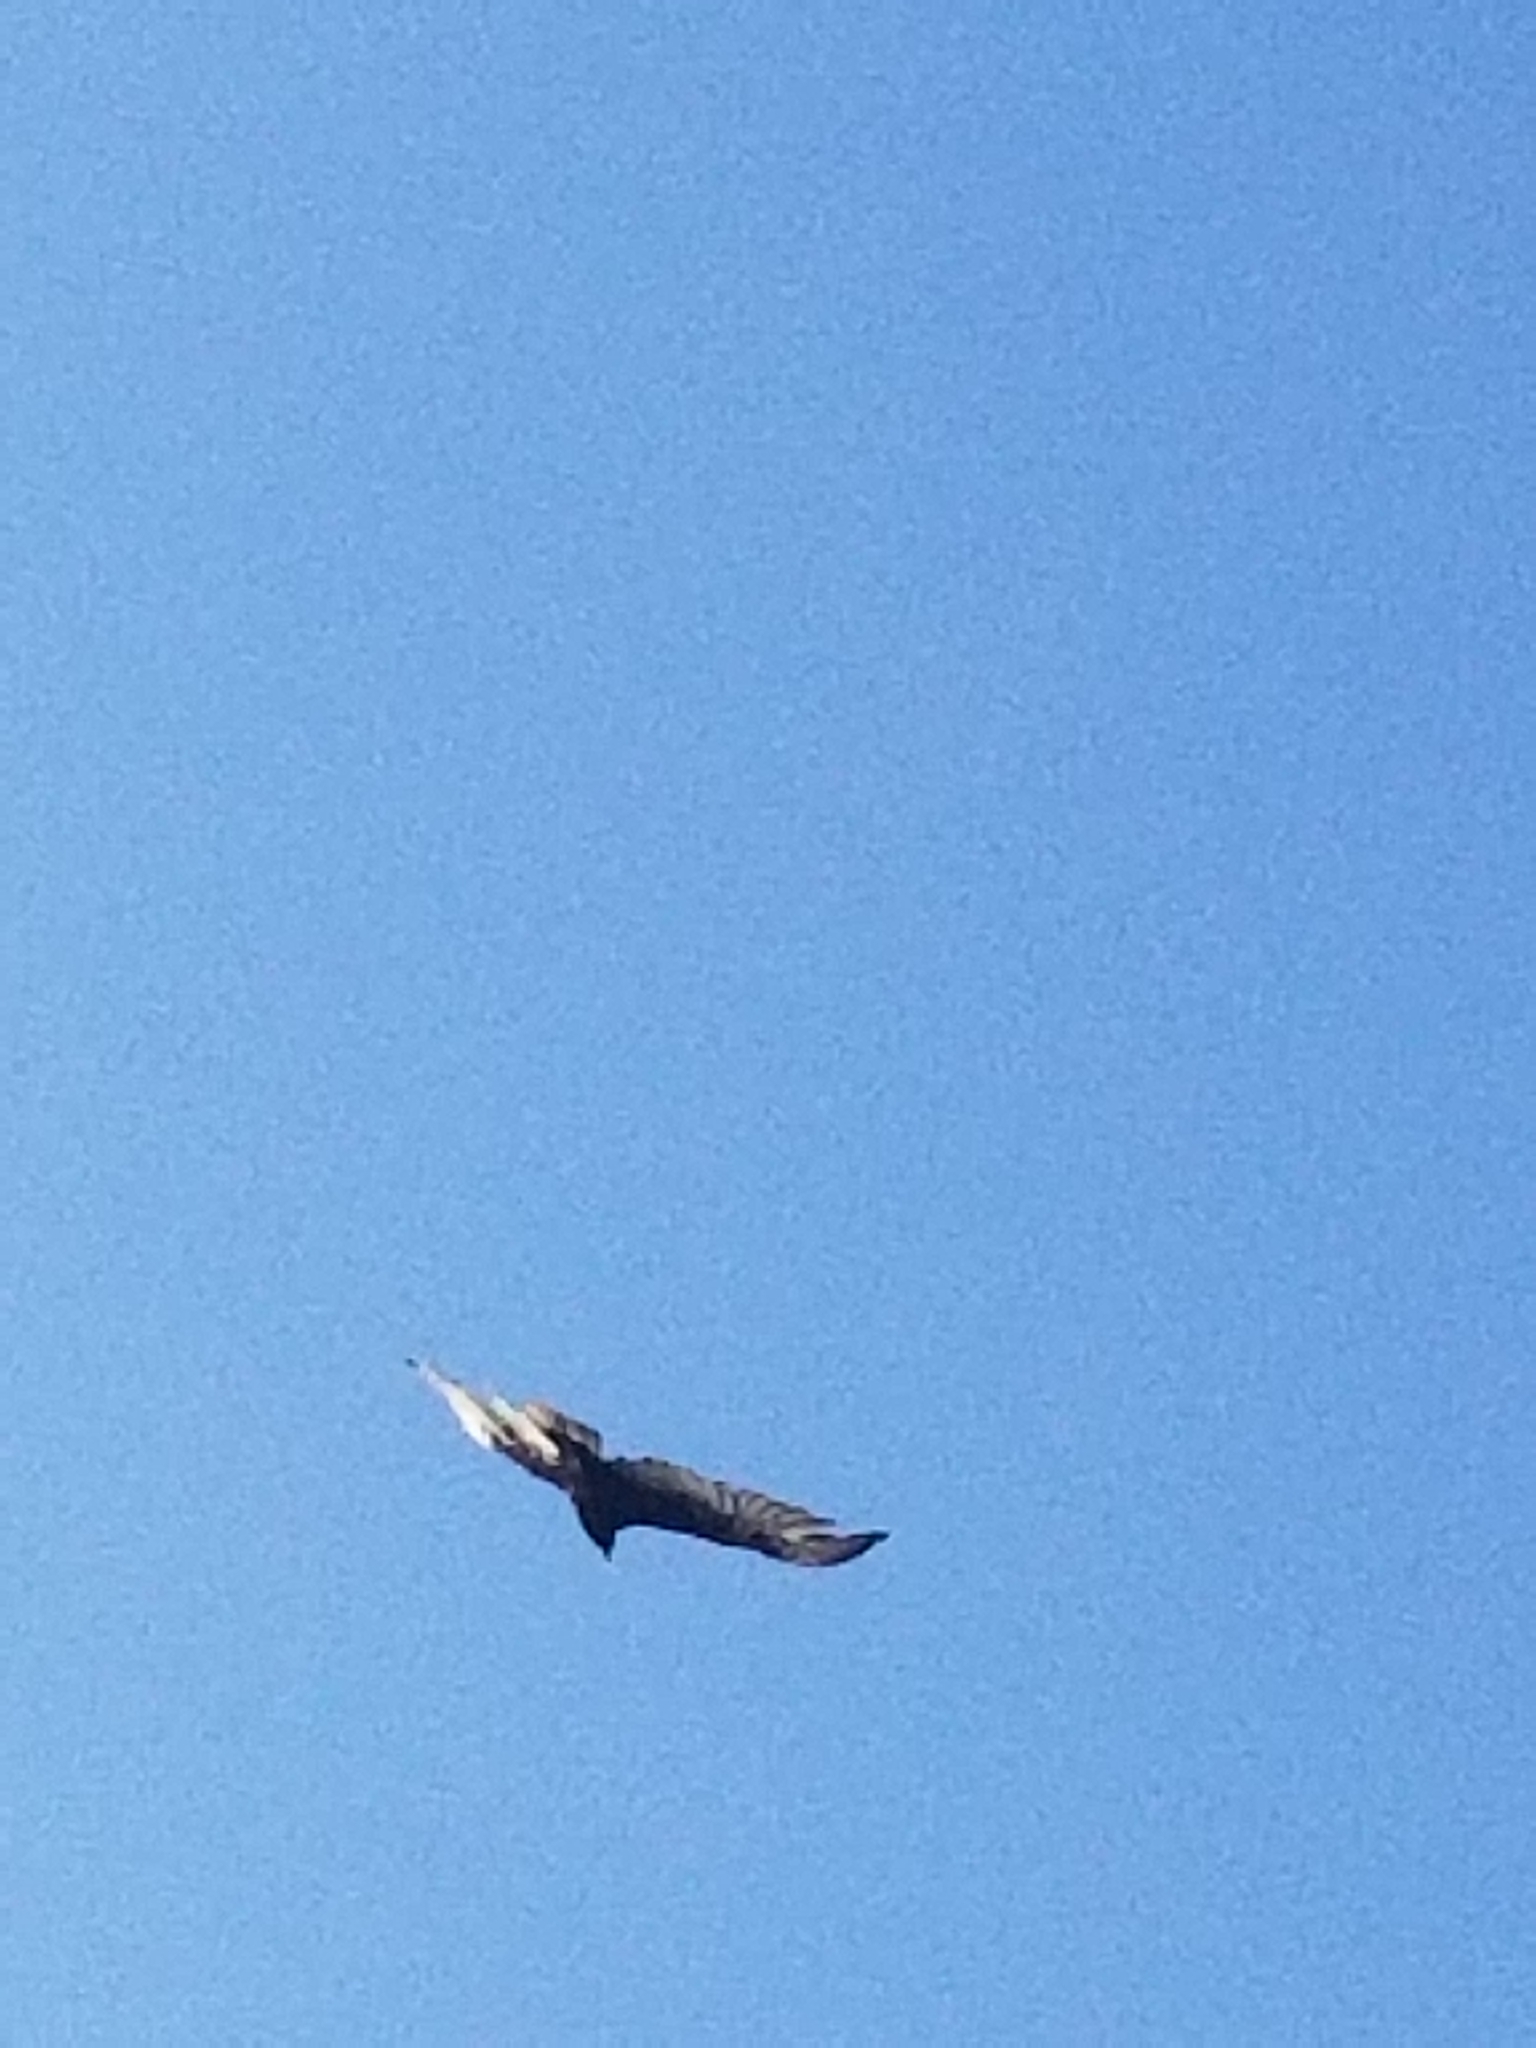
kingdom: Animalia
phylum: Chordata
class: Aves
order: Accipitriformes
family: Cathartidae
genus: Cathartes
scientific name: Cathartes aura
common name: Turkey vulture
